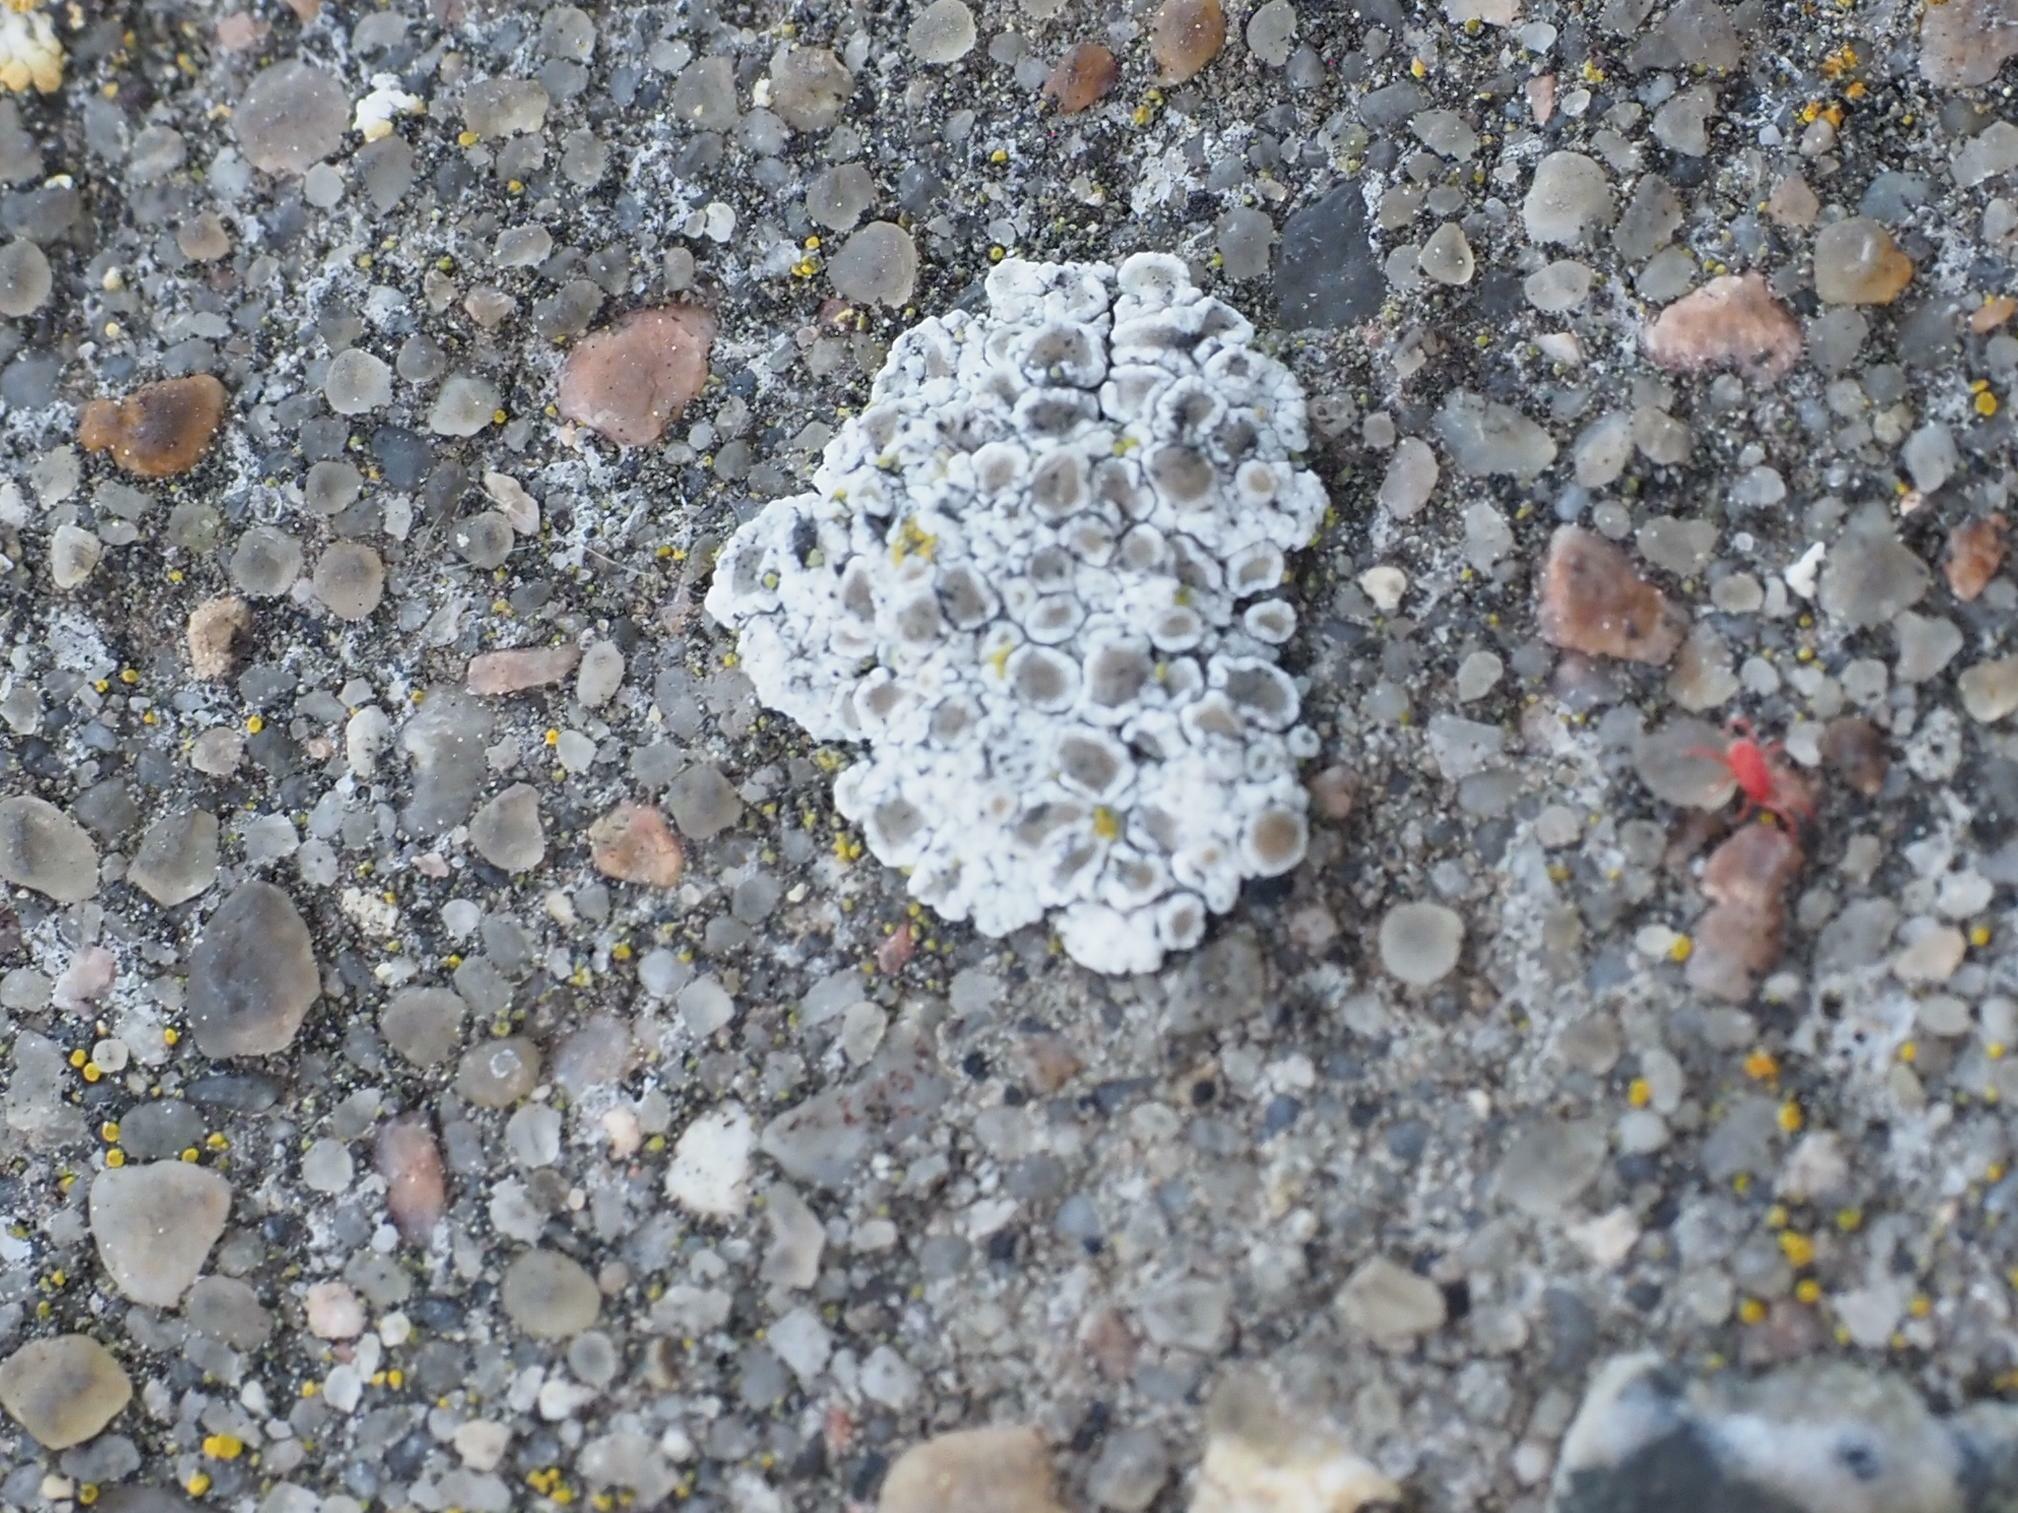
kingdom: Fungi
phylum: Ascomycota
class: Lecanoromycetes
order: Lecanorales
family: Lecanoraceae
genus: Polyozosia
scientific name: Polyozosia albescens
